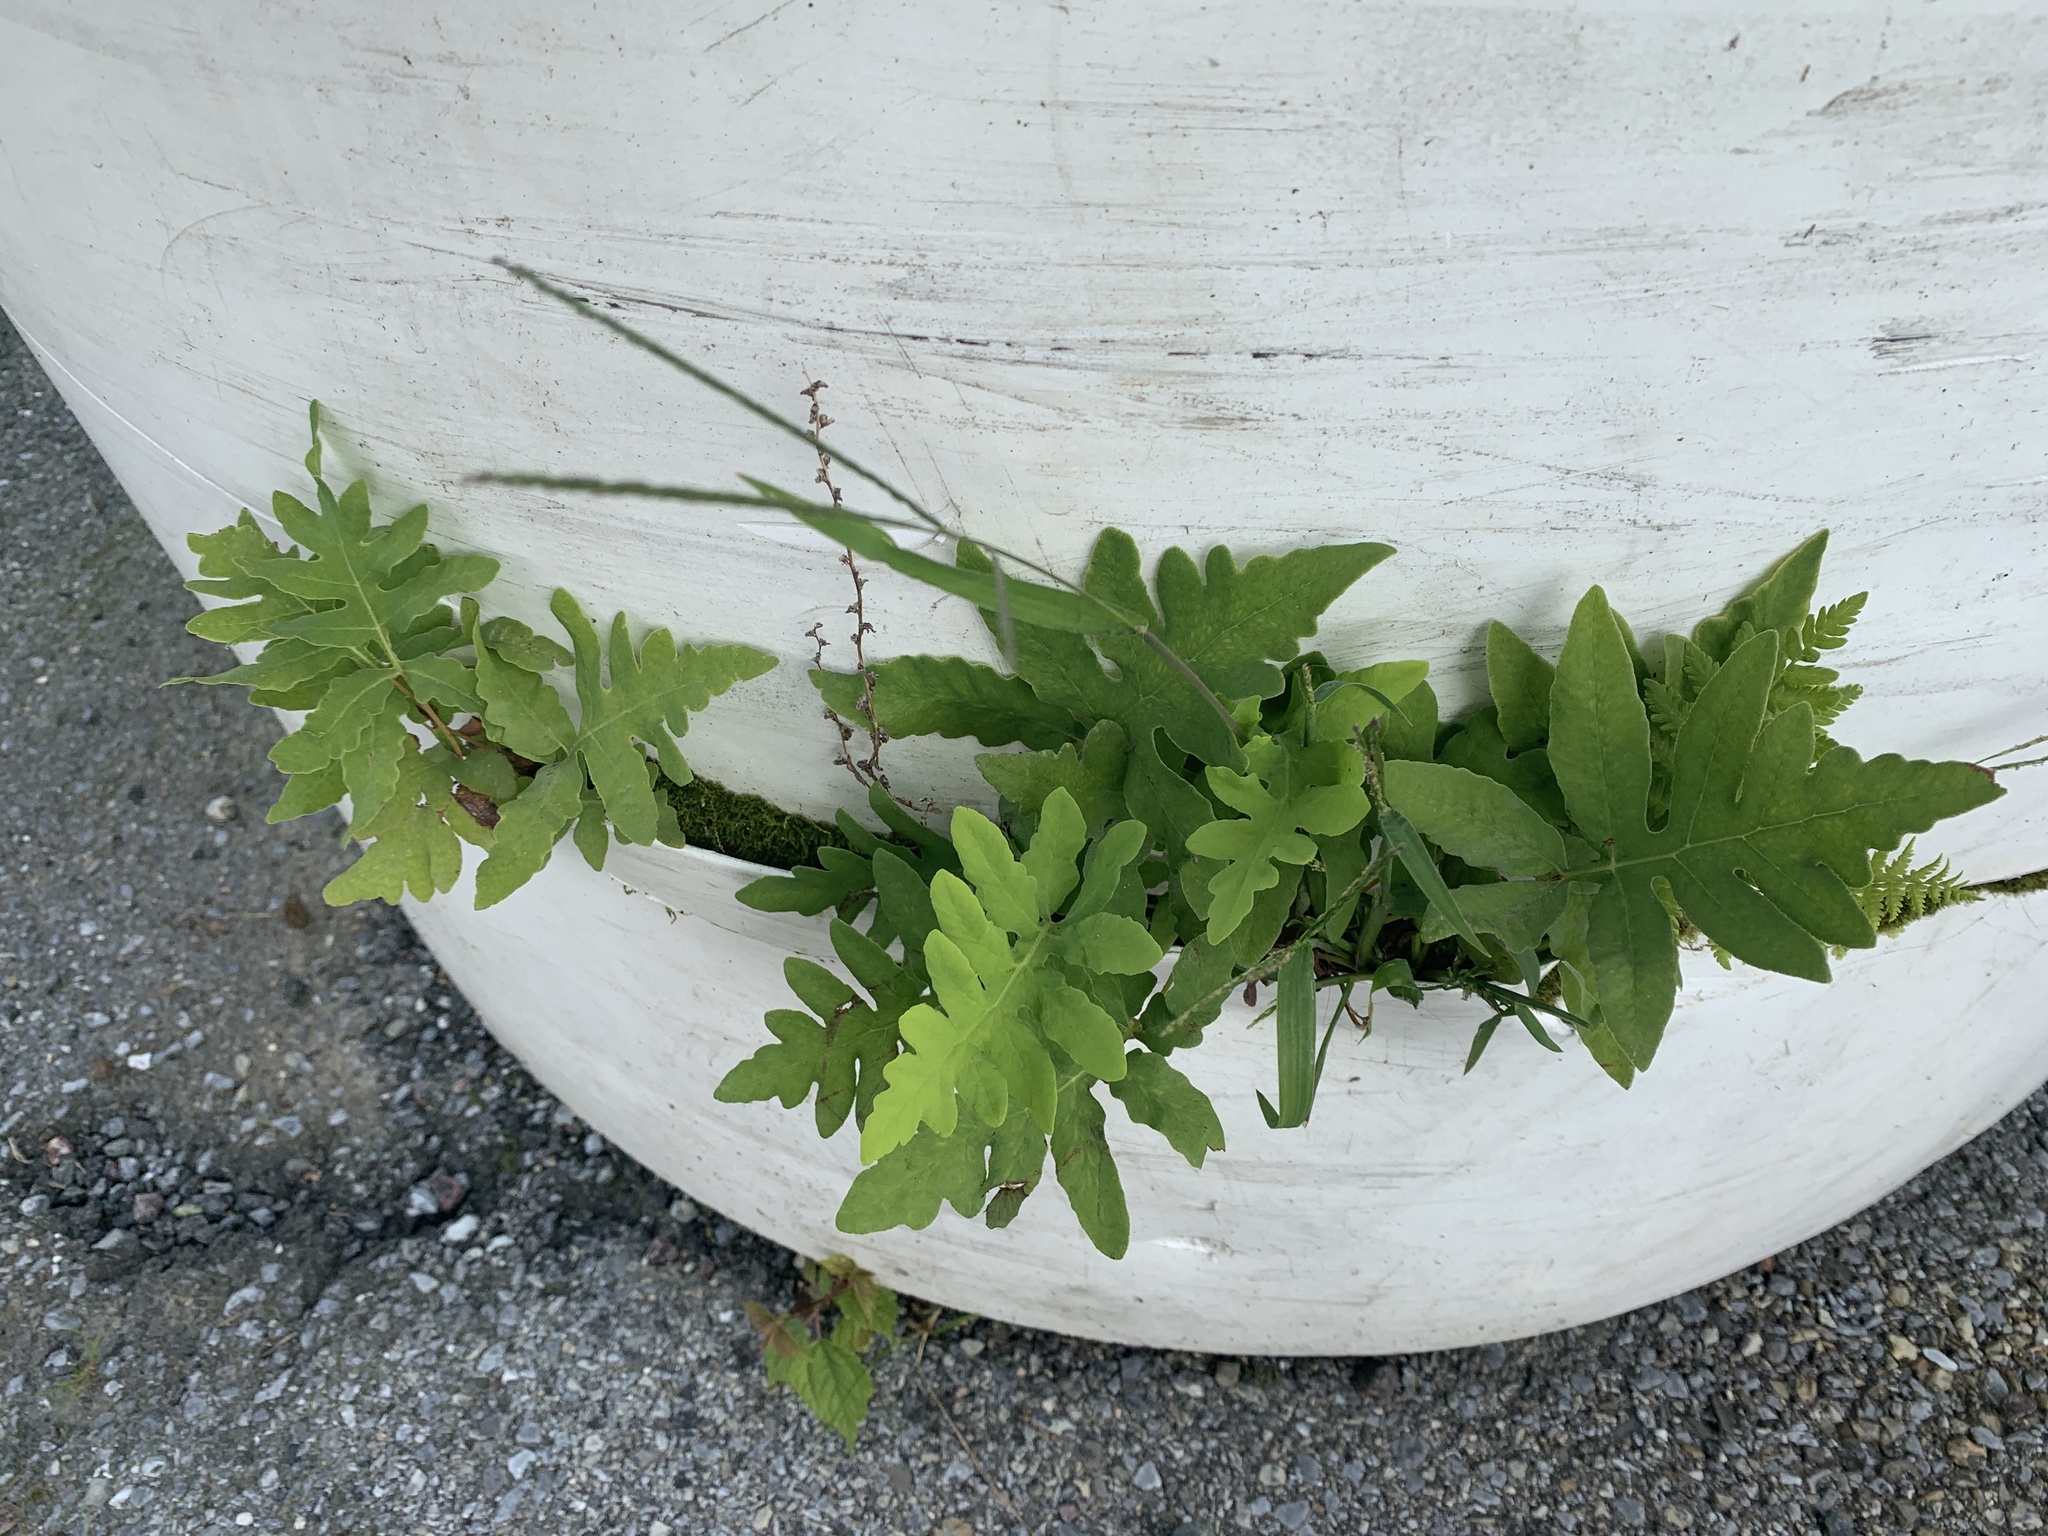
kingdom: Plantae
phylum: Tracheophyta
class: Polypodiopsida
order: Polypodiales
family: Onocleaceae
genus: Onoclea
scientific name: Onoclea sensibilis
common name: Sensitive fern
